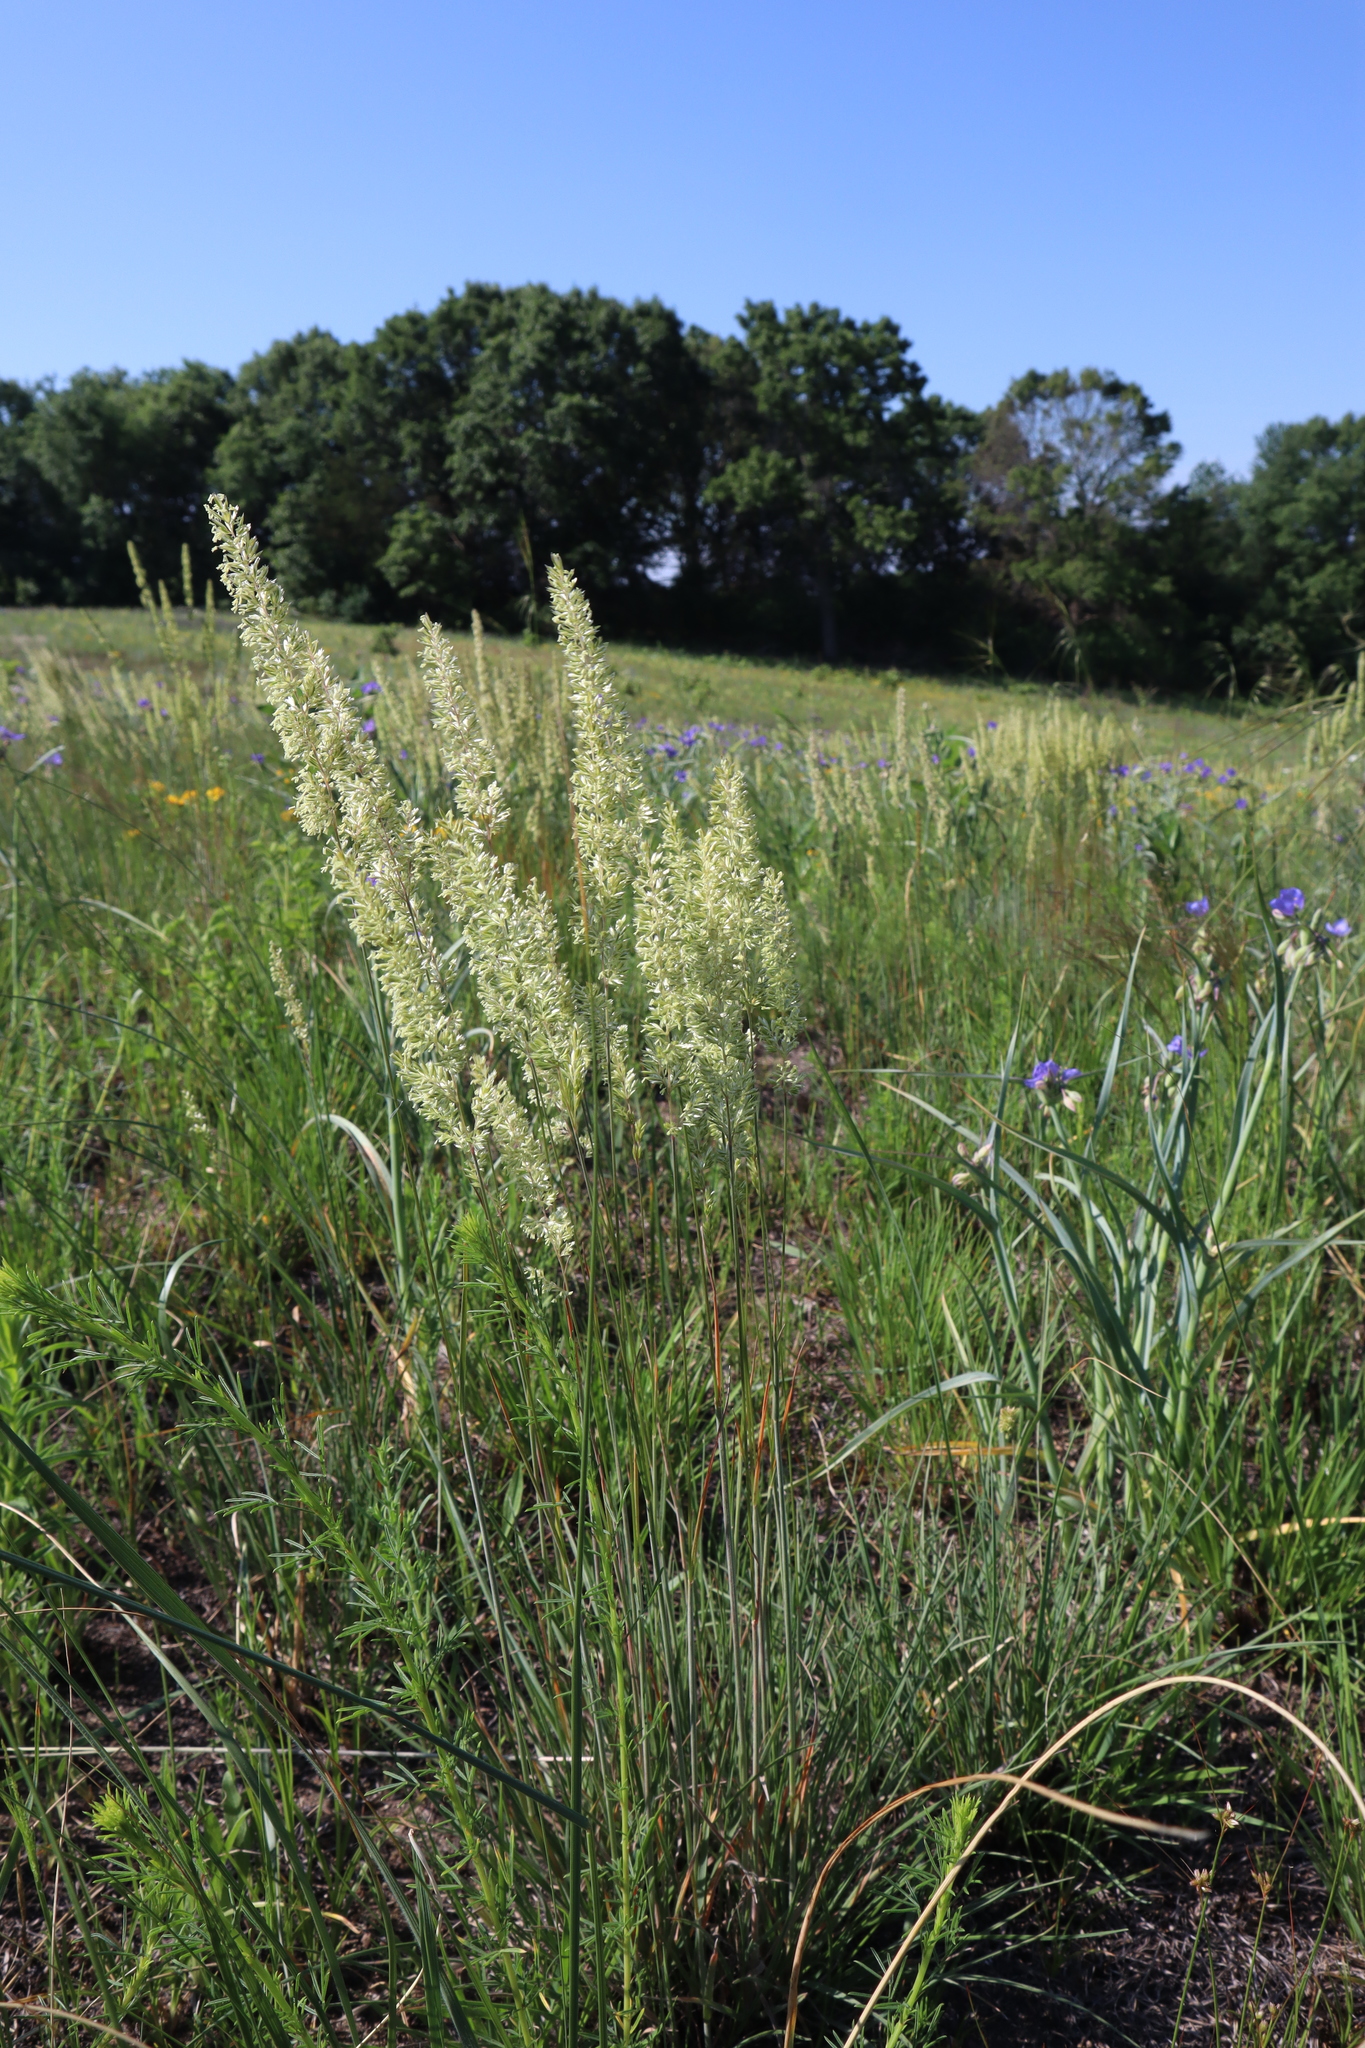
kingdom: Plantae
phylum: Tracheophyta
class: Liliopsida
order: Poales
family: Poaceae
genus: Koeleria
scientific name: Koeleria macrantha
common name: Crested hair-grass
